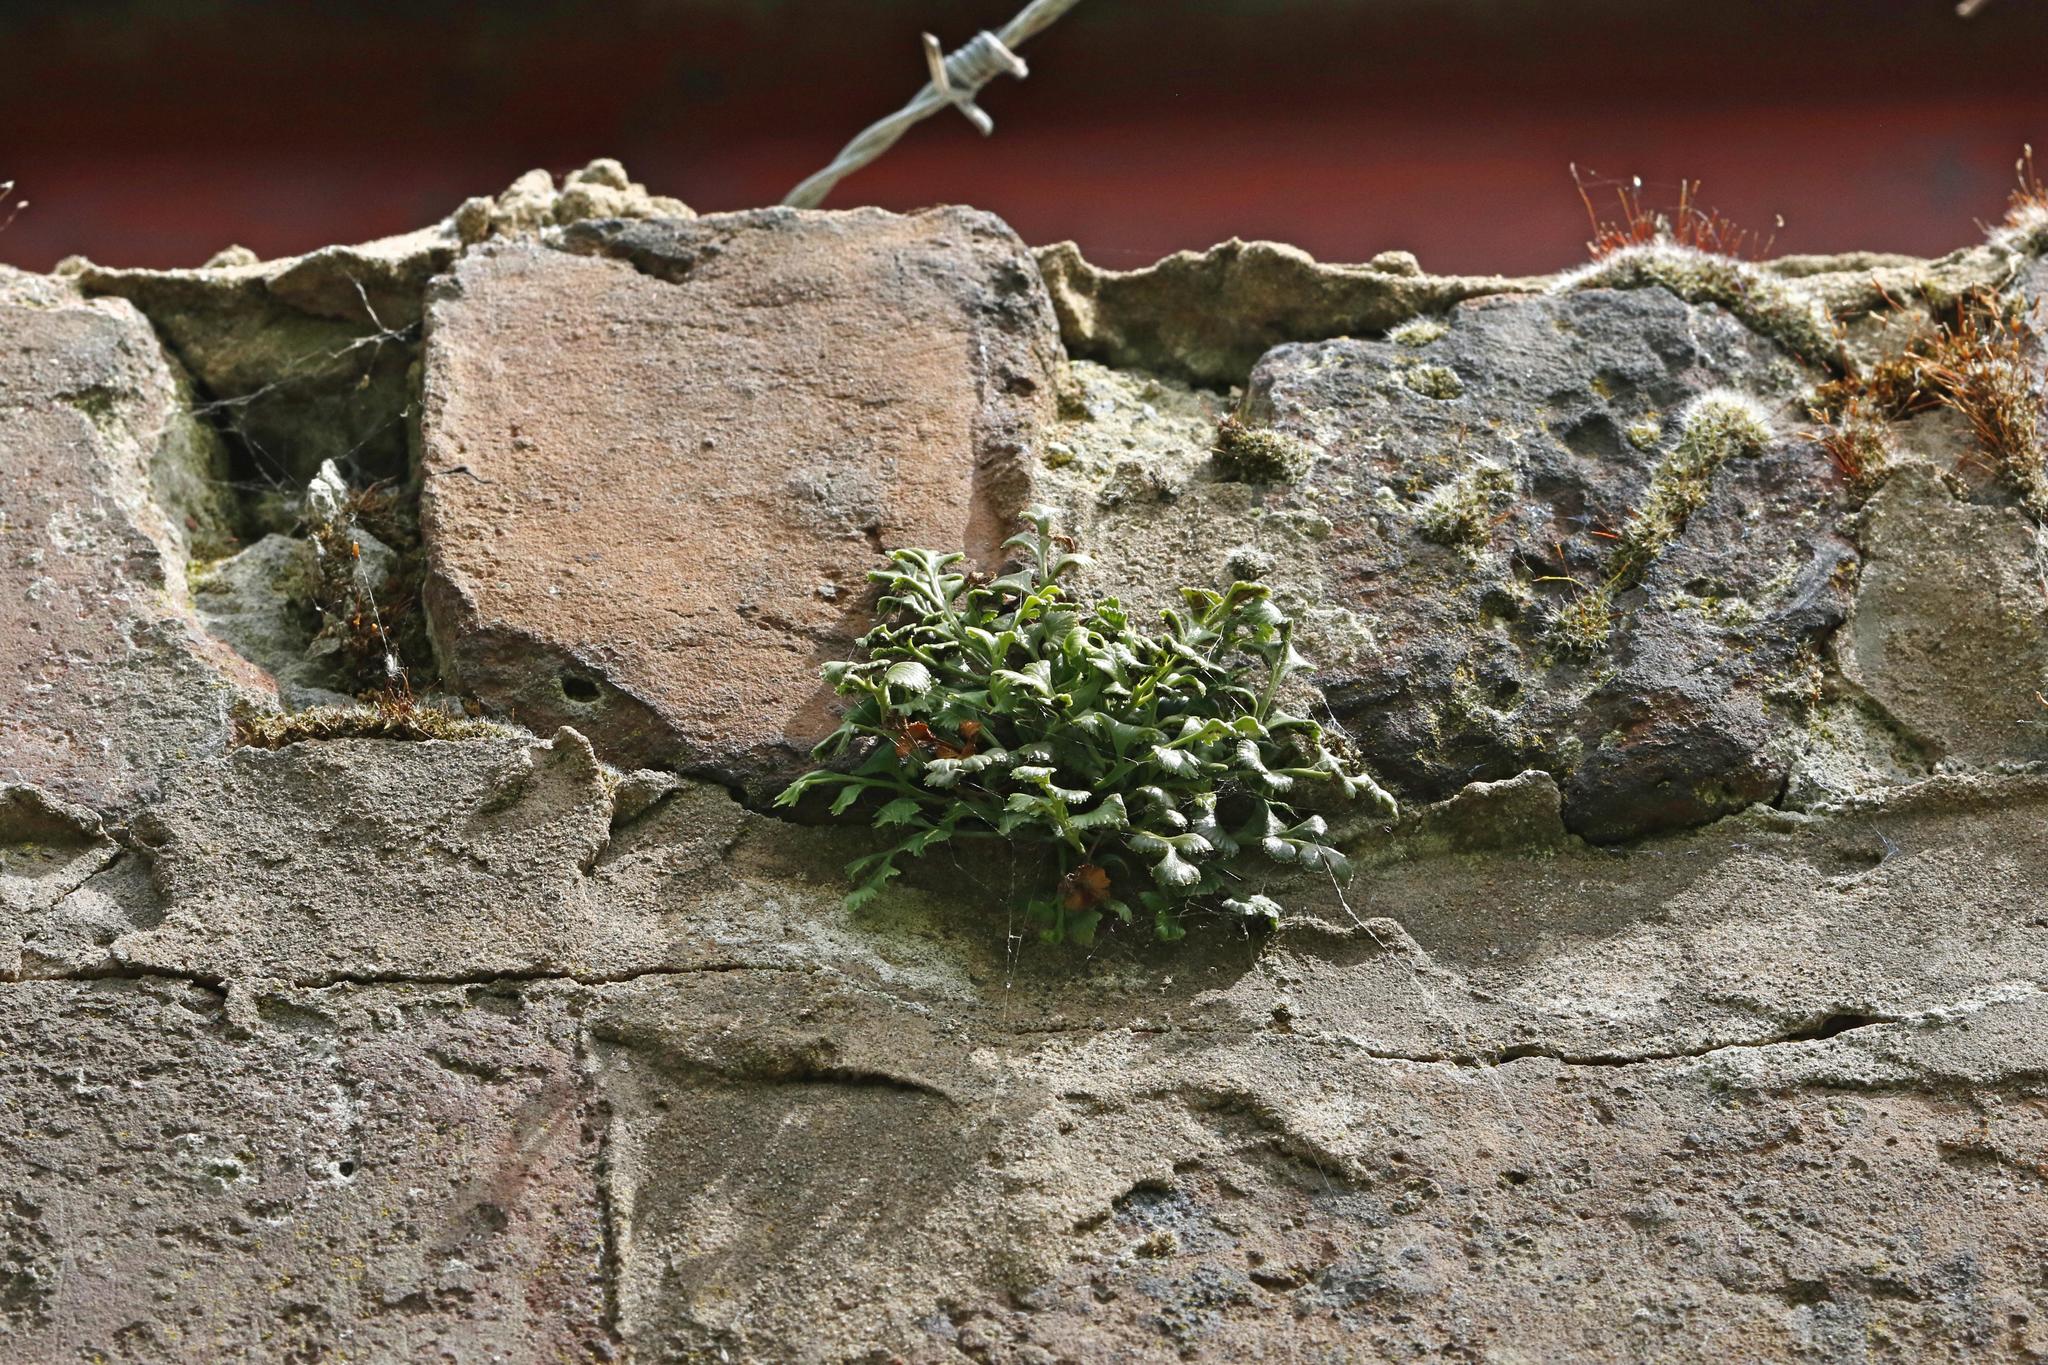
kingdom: Plantae
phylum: Tracheophyta
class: Polypodiopsida
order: Polypodiales
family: Aspleniaceae
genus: Asplenium
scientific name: Asplenium ruta-muraria
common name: Wall-rue
